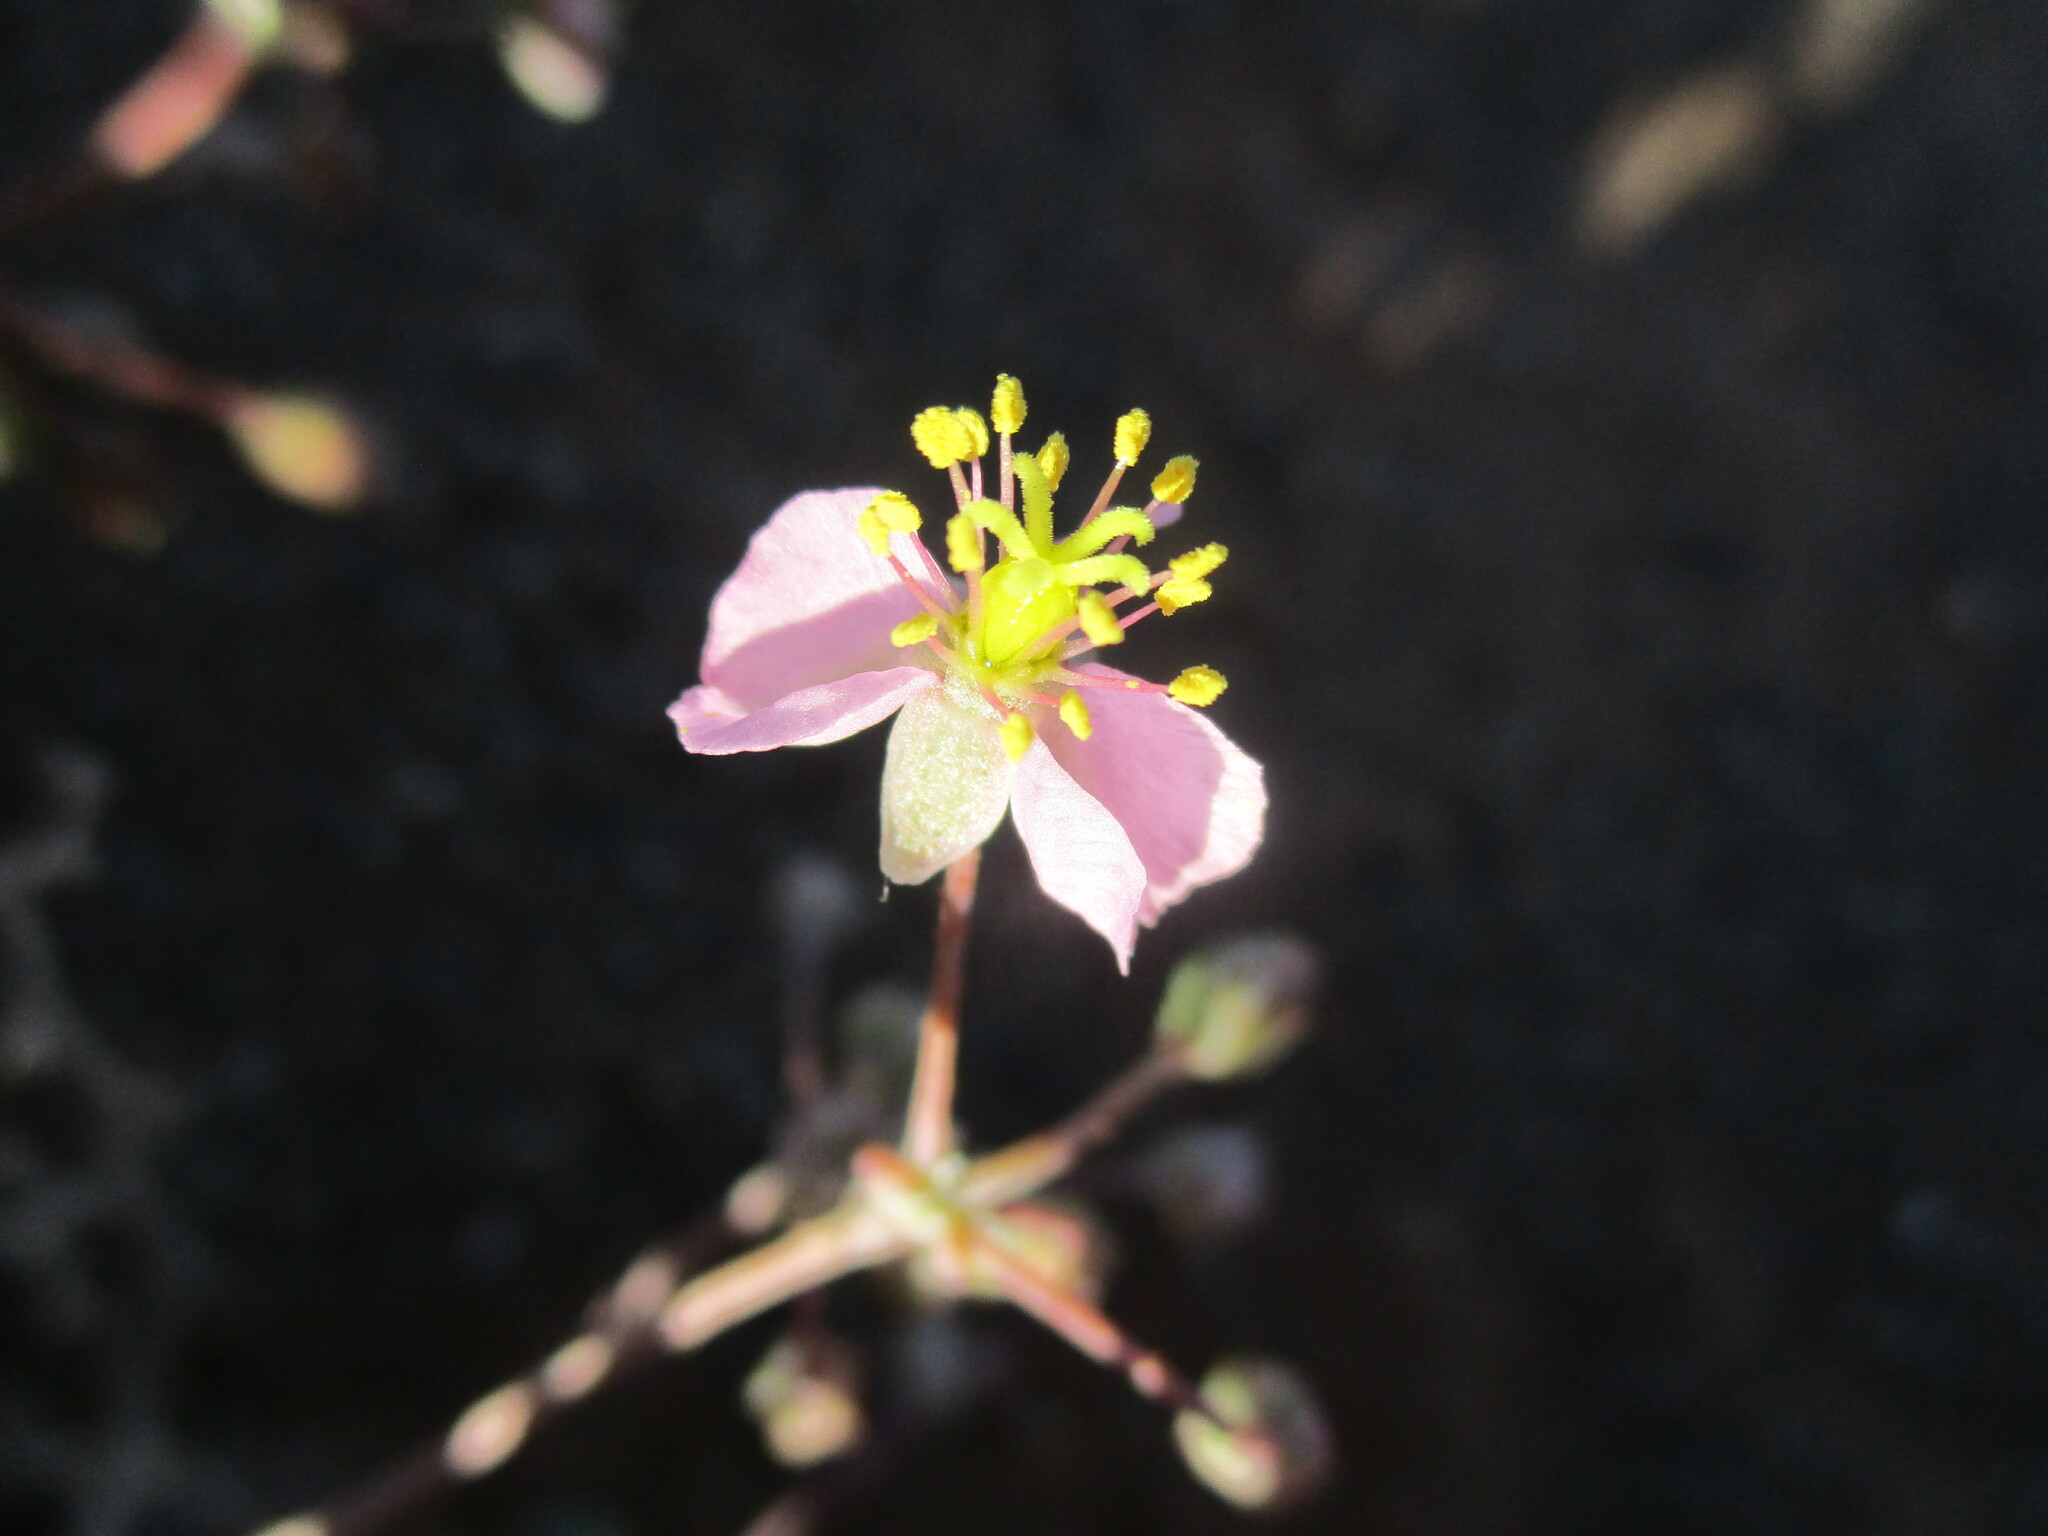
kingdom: Plantae
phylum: Tracheophyta
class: Magnoliopsida
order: Caryophyllales
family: Kewaceae
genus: Kewa
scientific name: Kewa salsoloides
